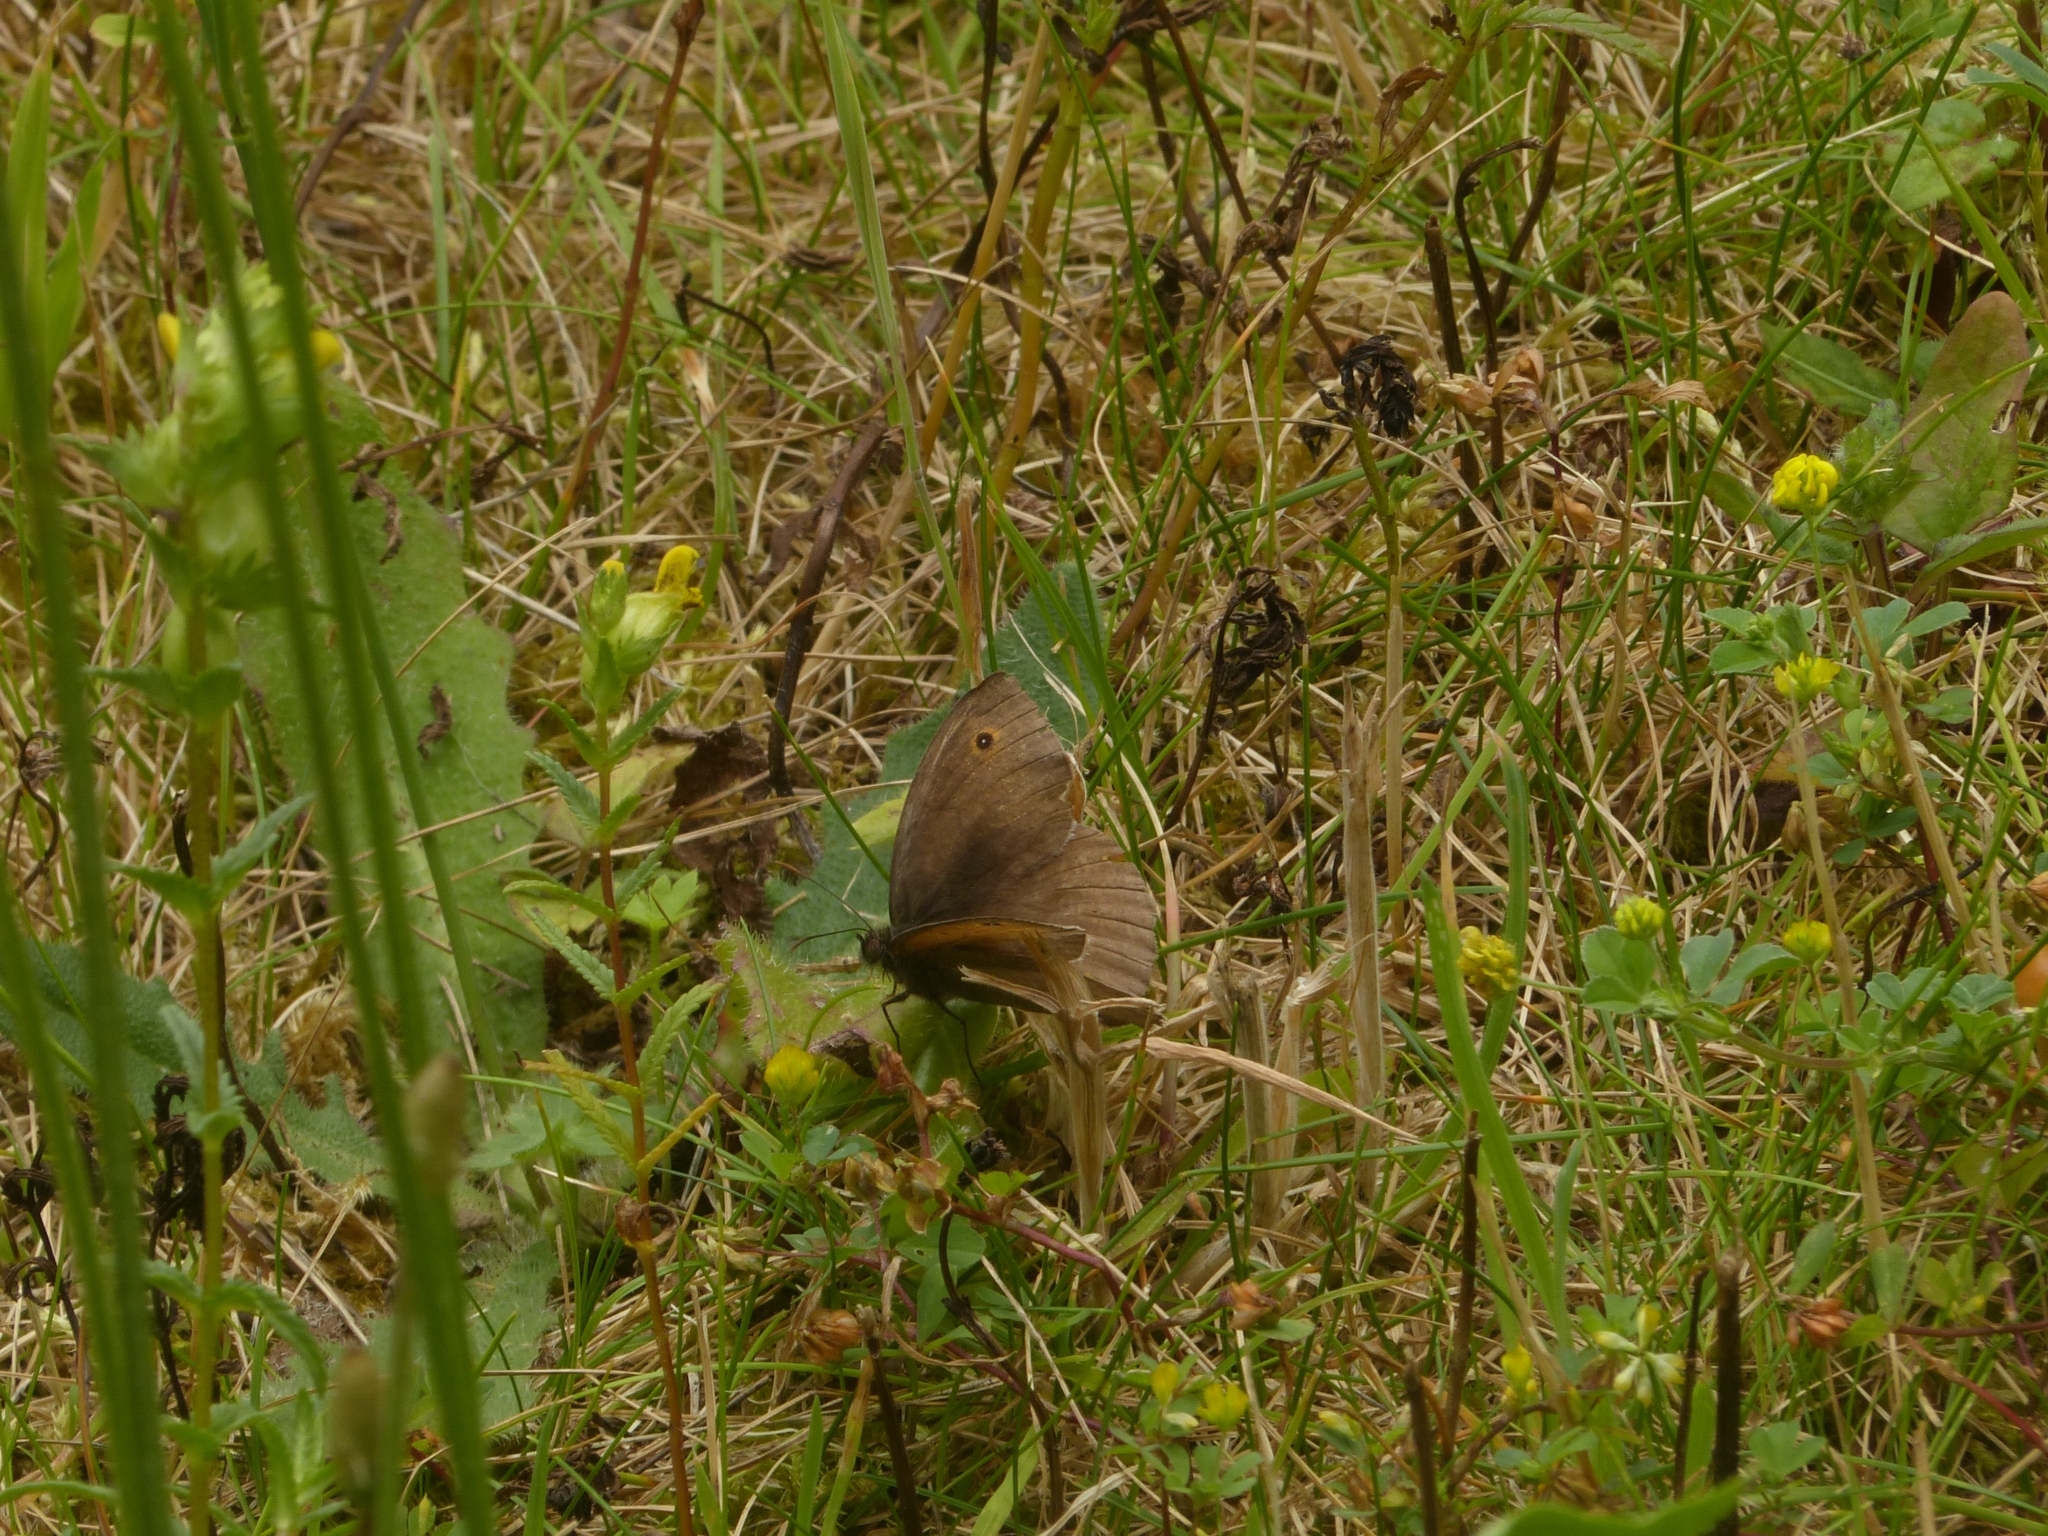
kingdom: Animalia
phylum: Arthropoda
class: Insecta
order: Lepidoptera
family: Nymphalidae
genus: Maniola
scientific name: Maniola jurtina
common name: Meadow brown
